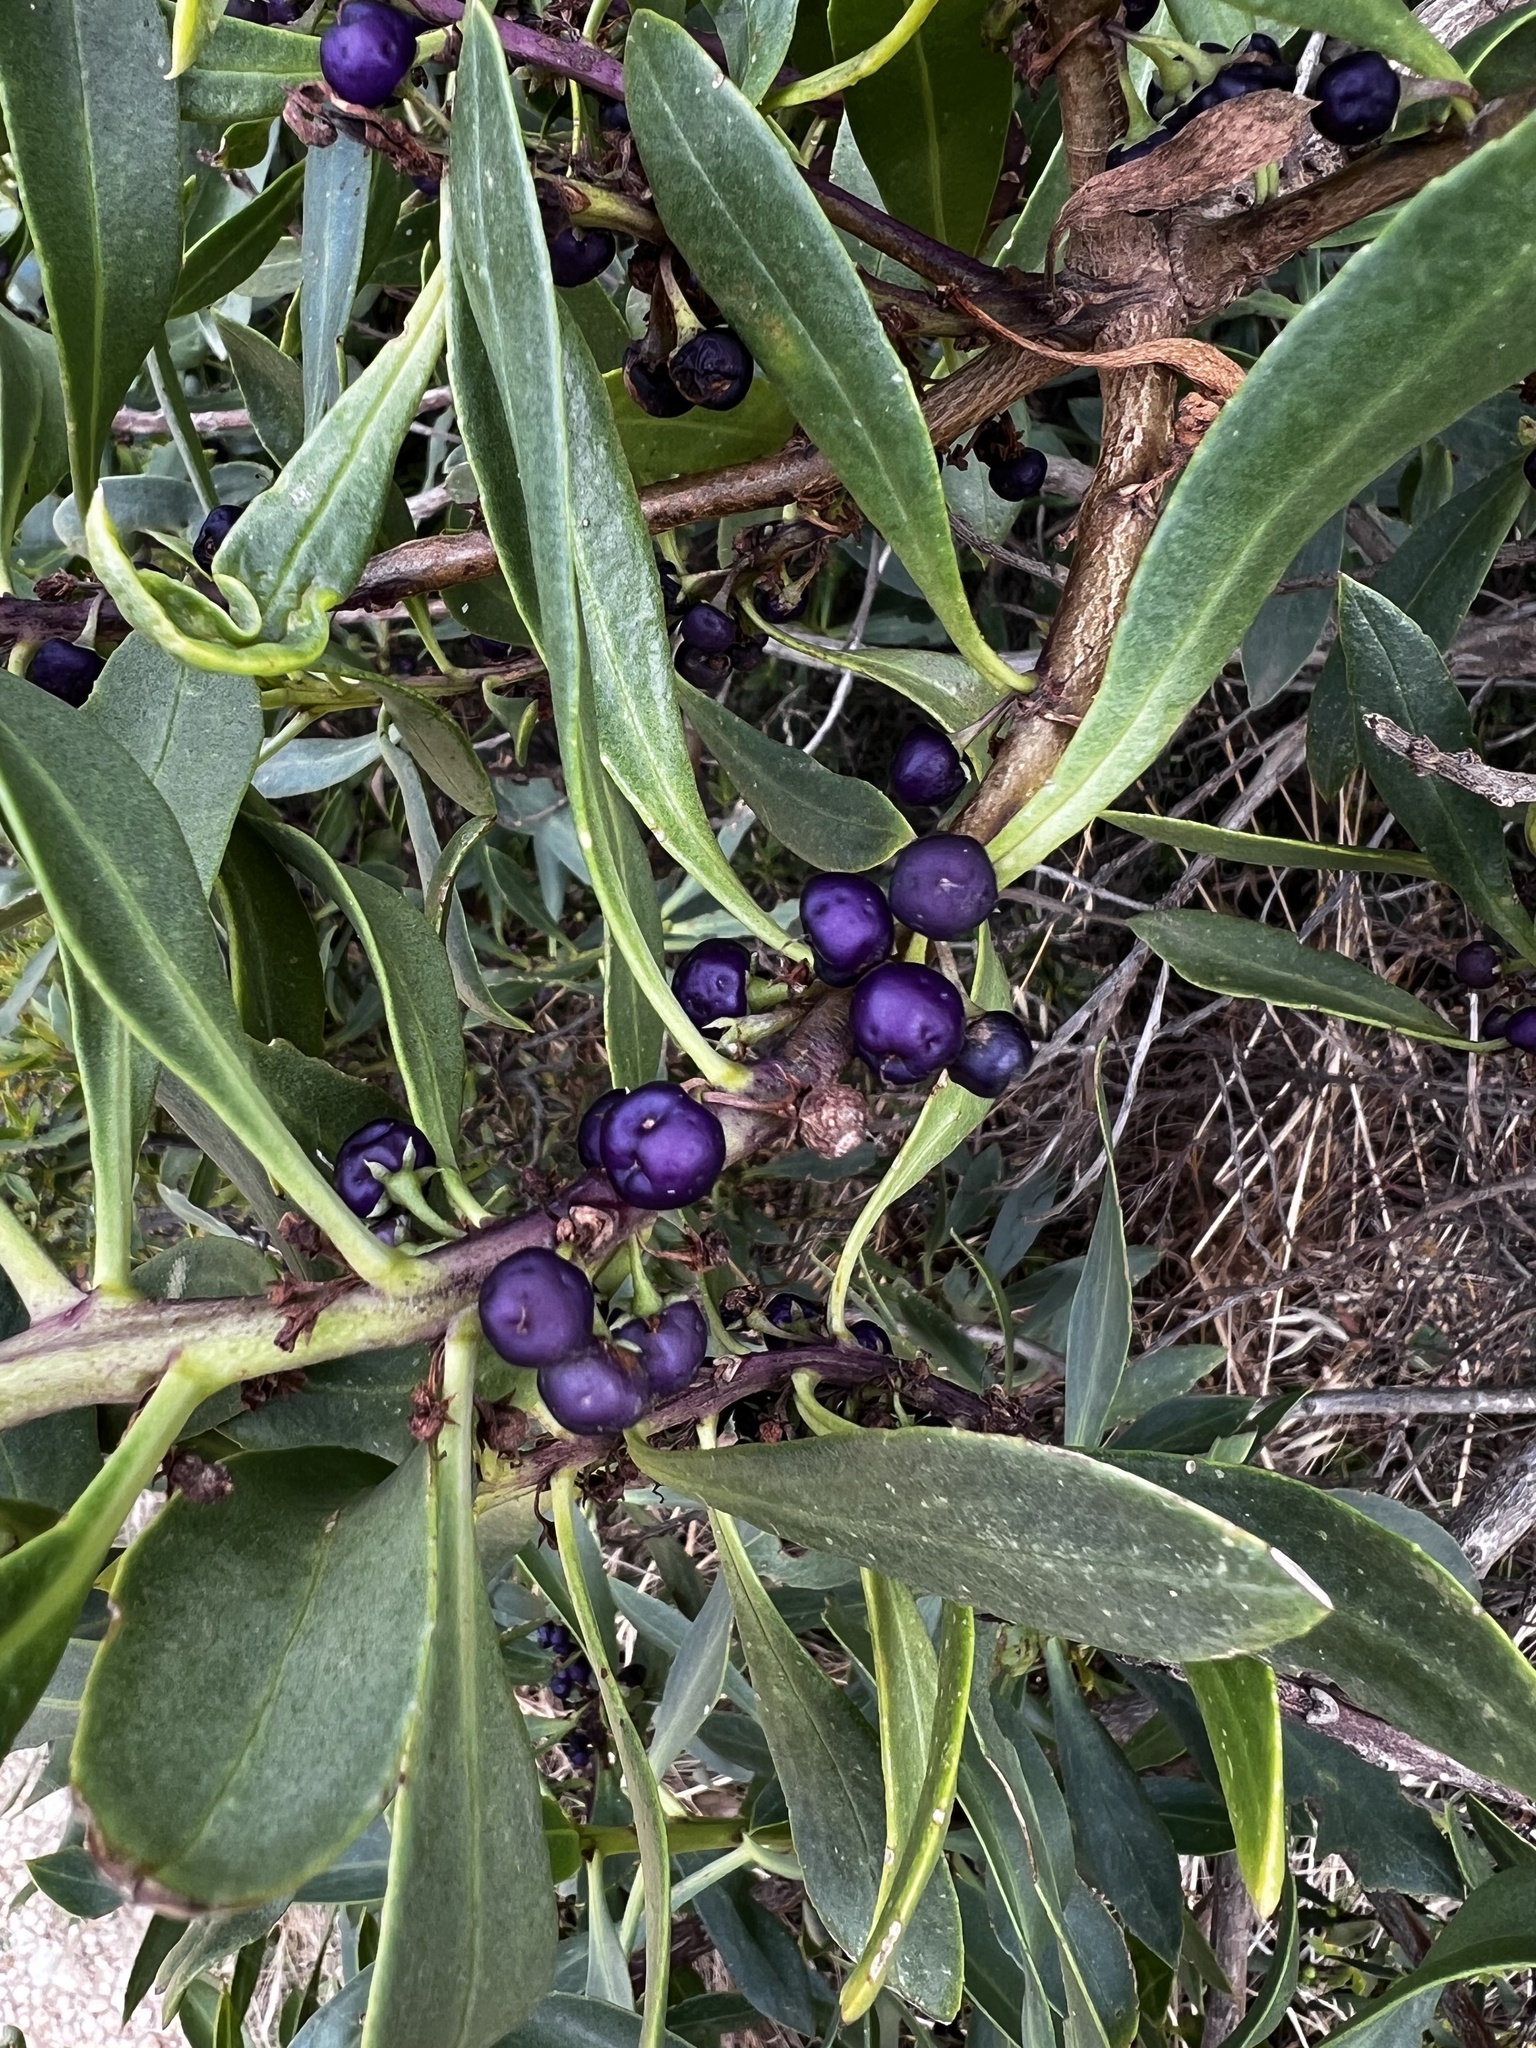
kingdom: Plantae
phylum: Tracheophyta
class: Magnoliopsida
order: Lamiales
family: Scrophulariaceae
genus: Myoporum
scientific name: Myoporum insulare
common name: Common boobialla
